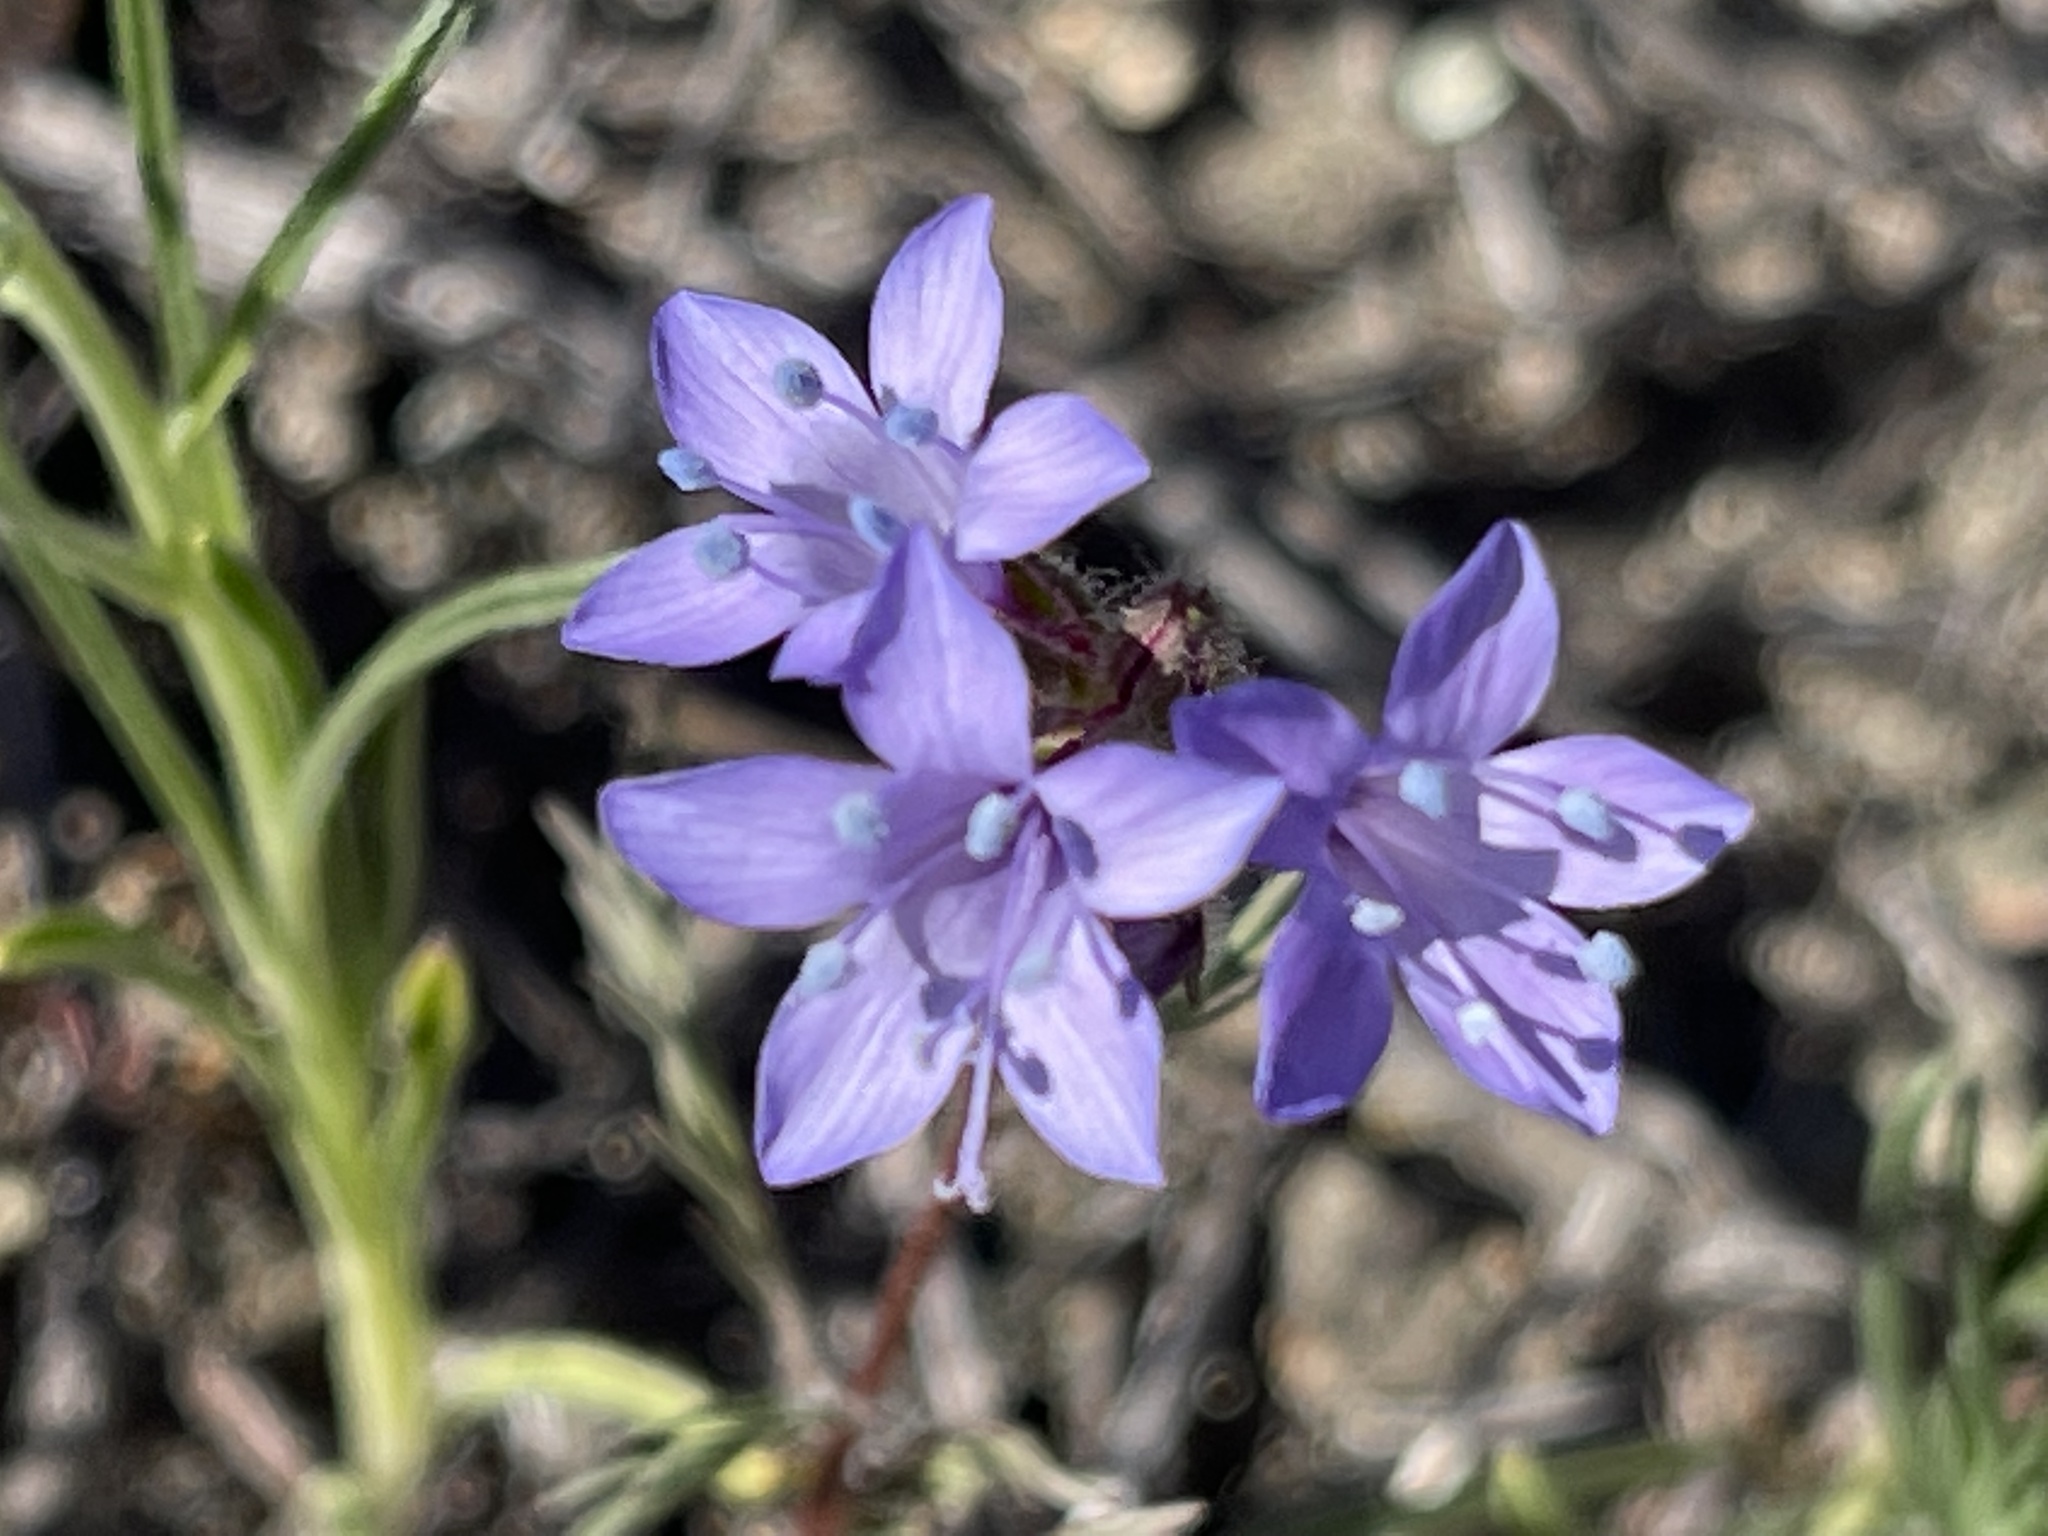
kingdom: Plantae
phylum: Tracheophyta
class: Magnoliopsida
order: Ericales
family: Polemoniaceae
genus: Gilia
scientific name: Gilia achilleifolia
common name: California gily-flower
